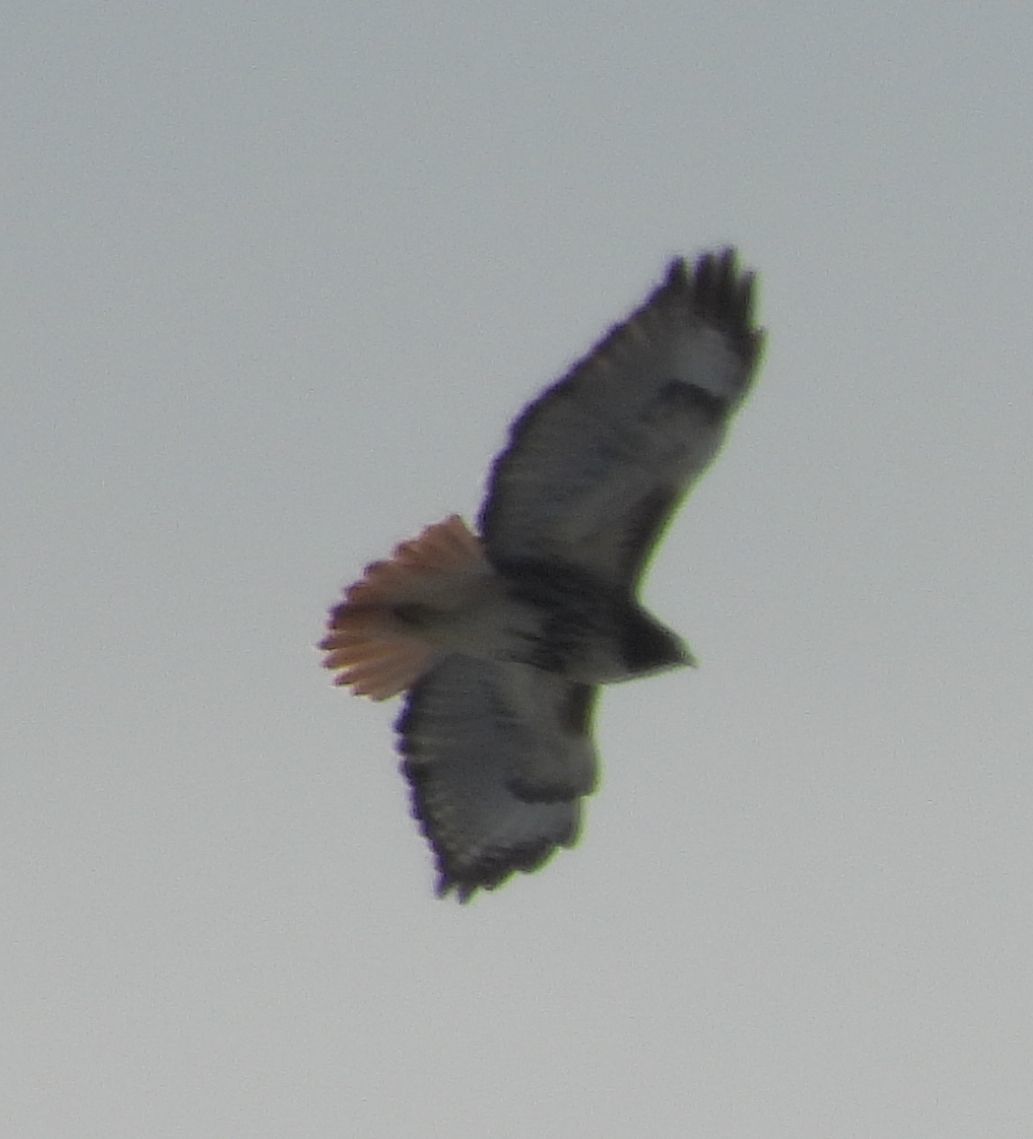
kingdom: Animalia
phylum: Chordata
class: Aves
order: Accipitriformes
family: Accipitridae
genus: Buteo
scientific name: Buteo jamaicensis
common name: Red-tailed hawk
